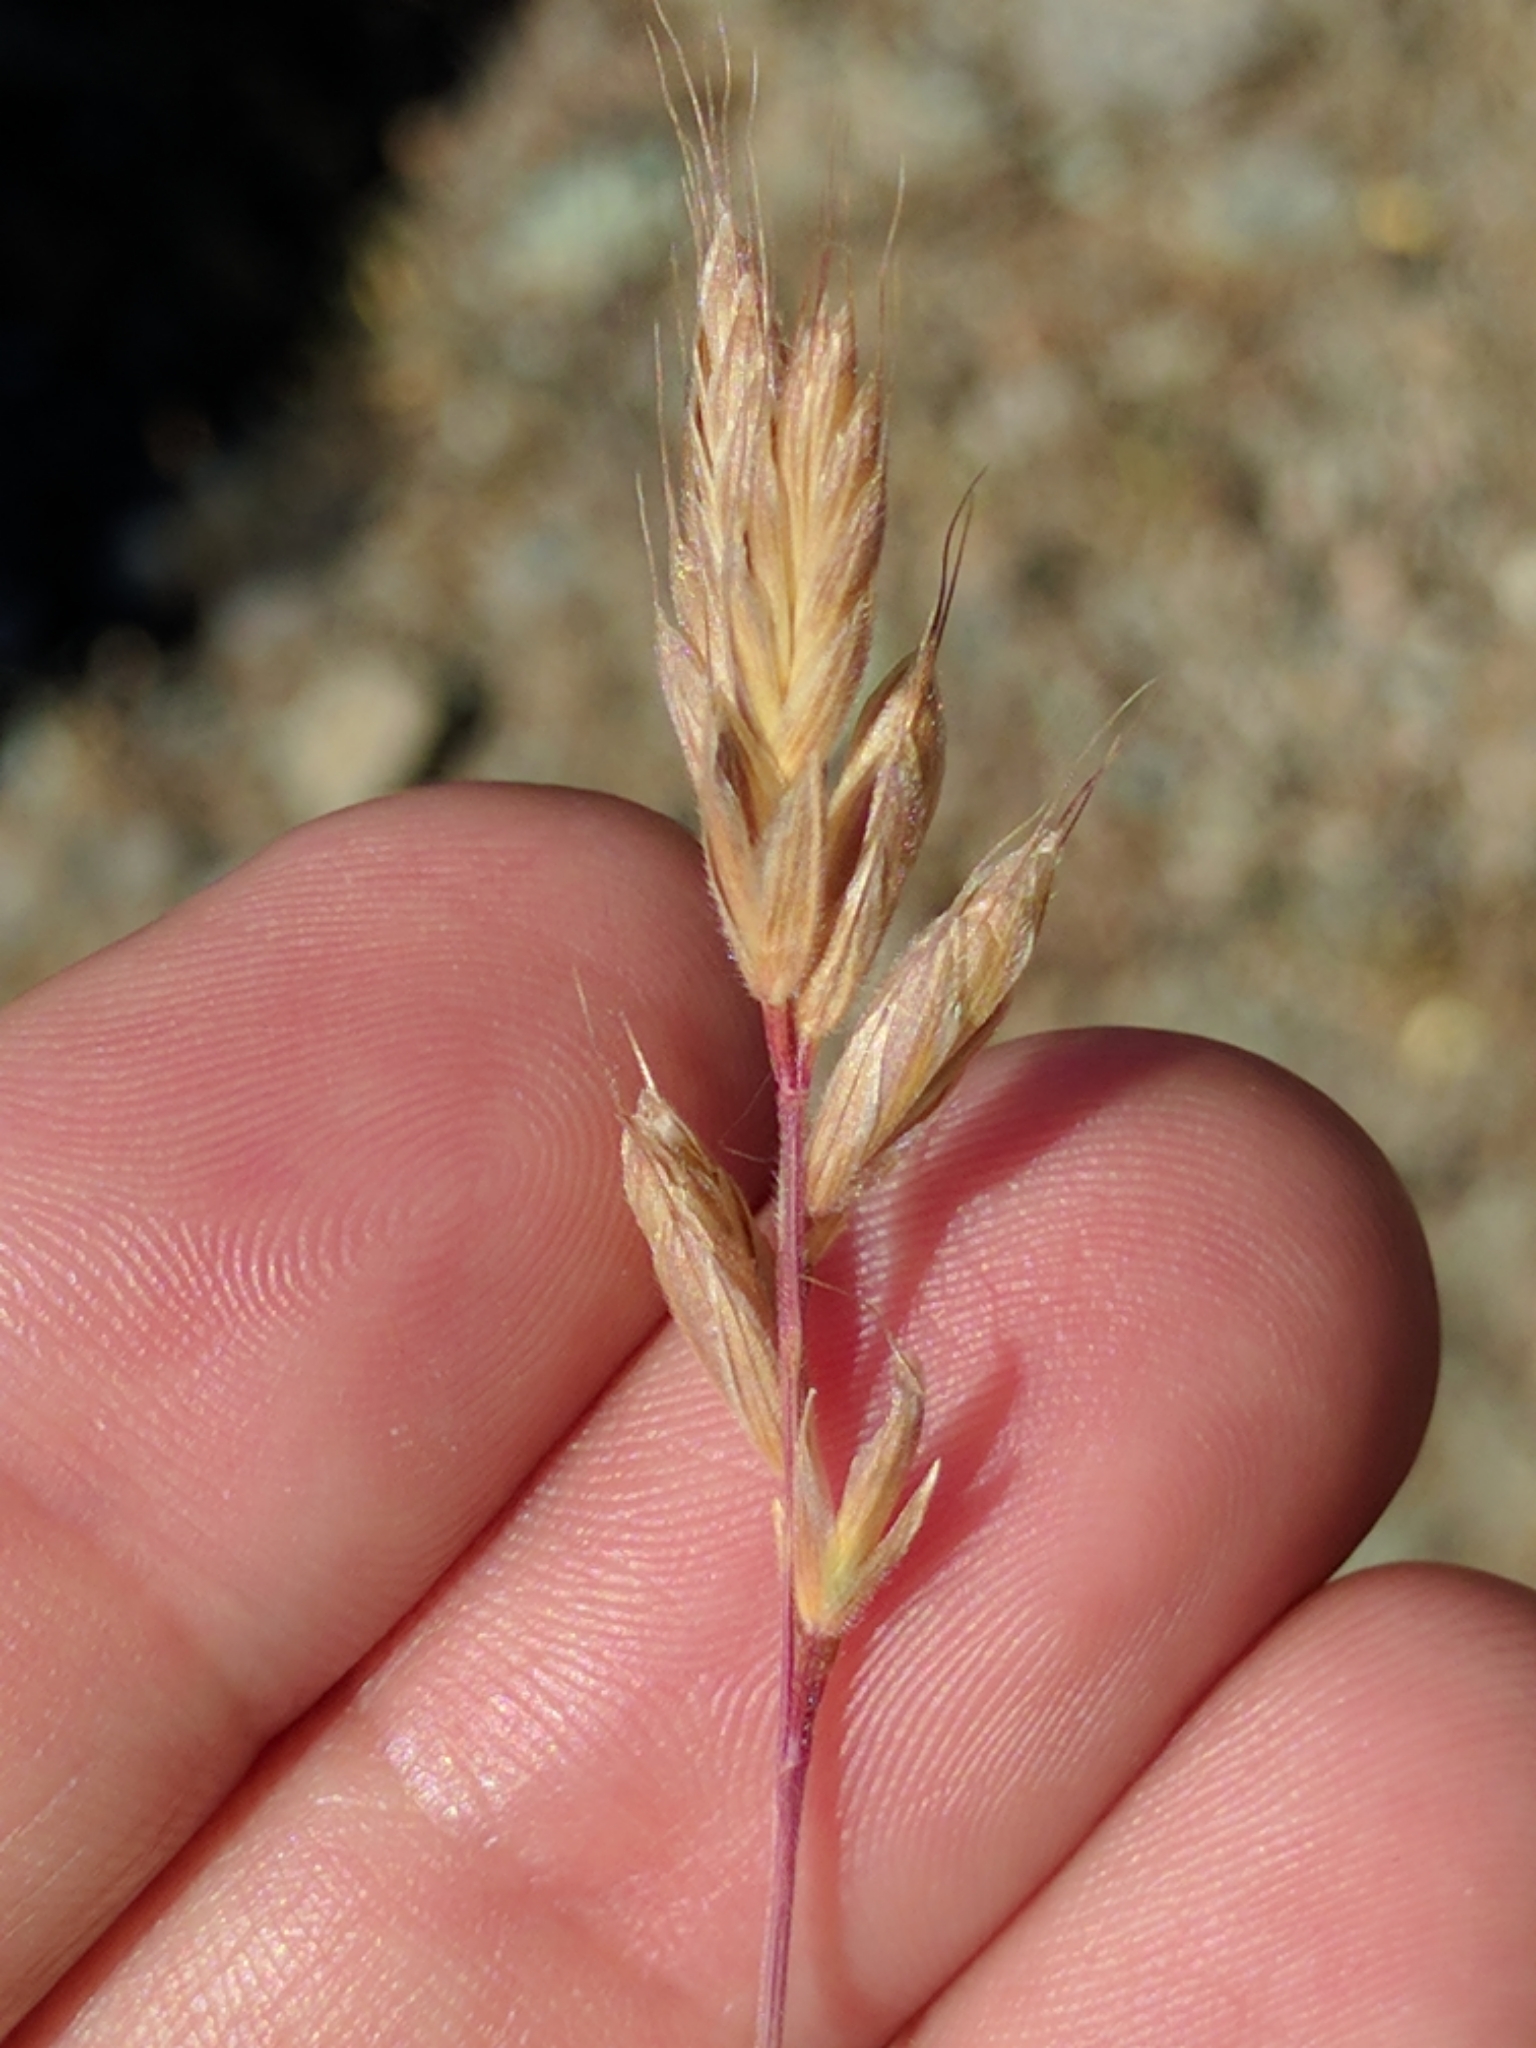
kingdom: Plantae
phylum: Tracheophyta
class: Liliopsida
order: Poales
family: Poaceae
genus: Bromus
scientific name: Bromus hordeaceus
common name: Soft brome
